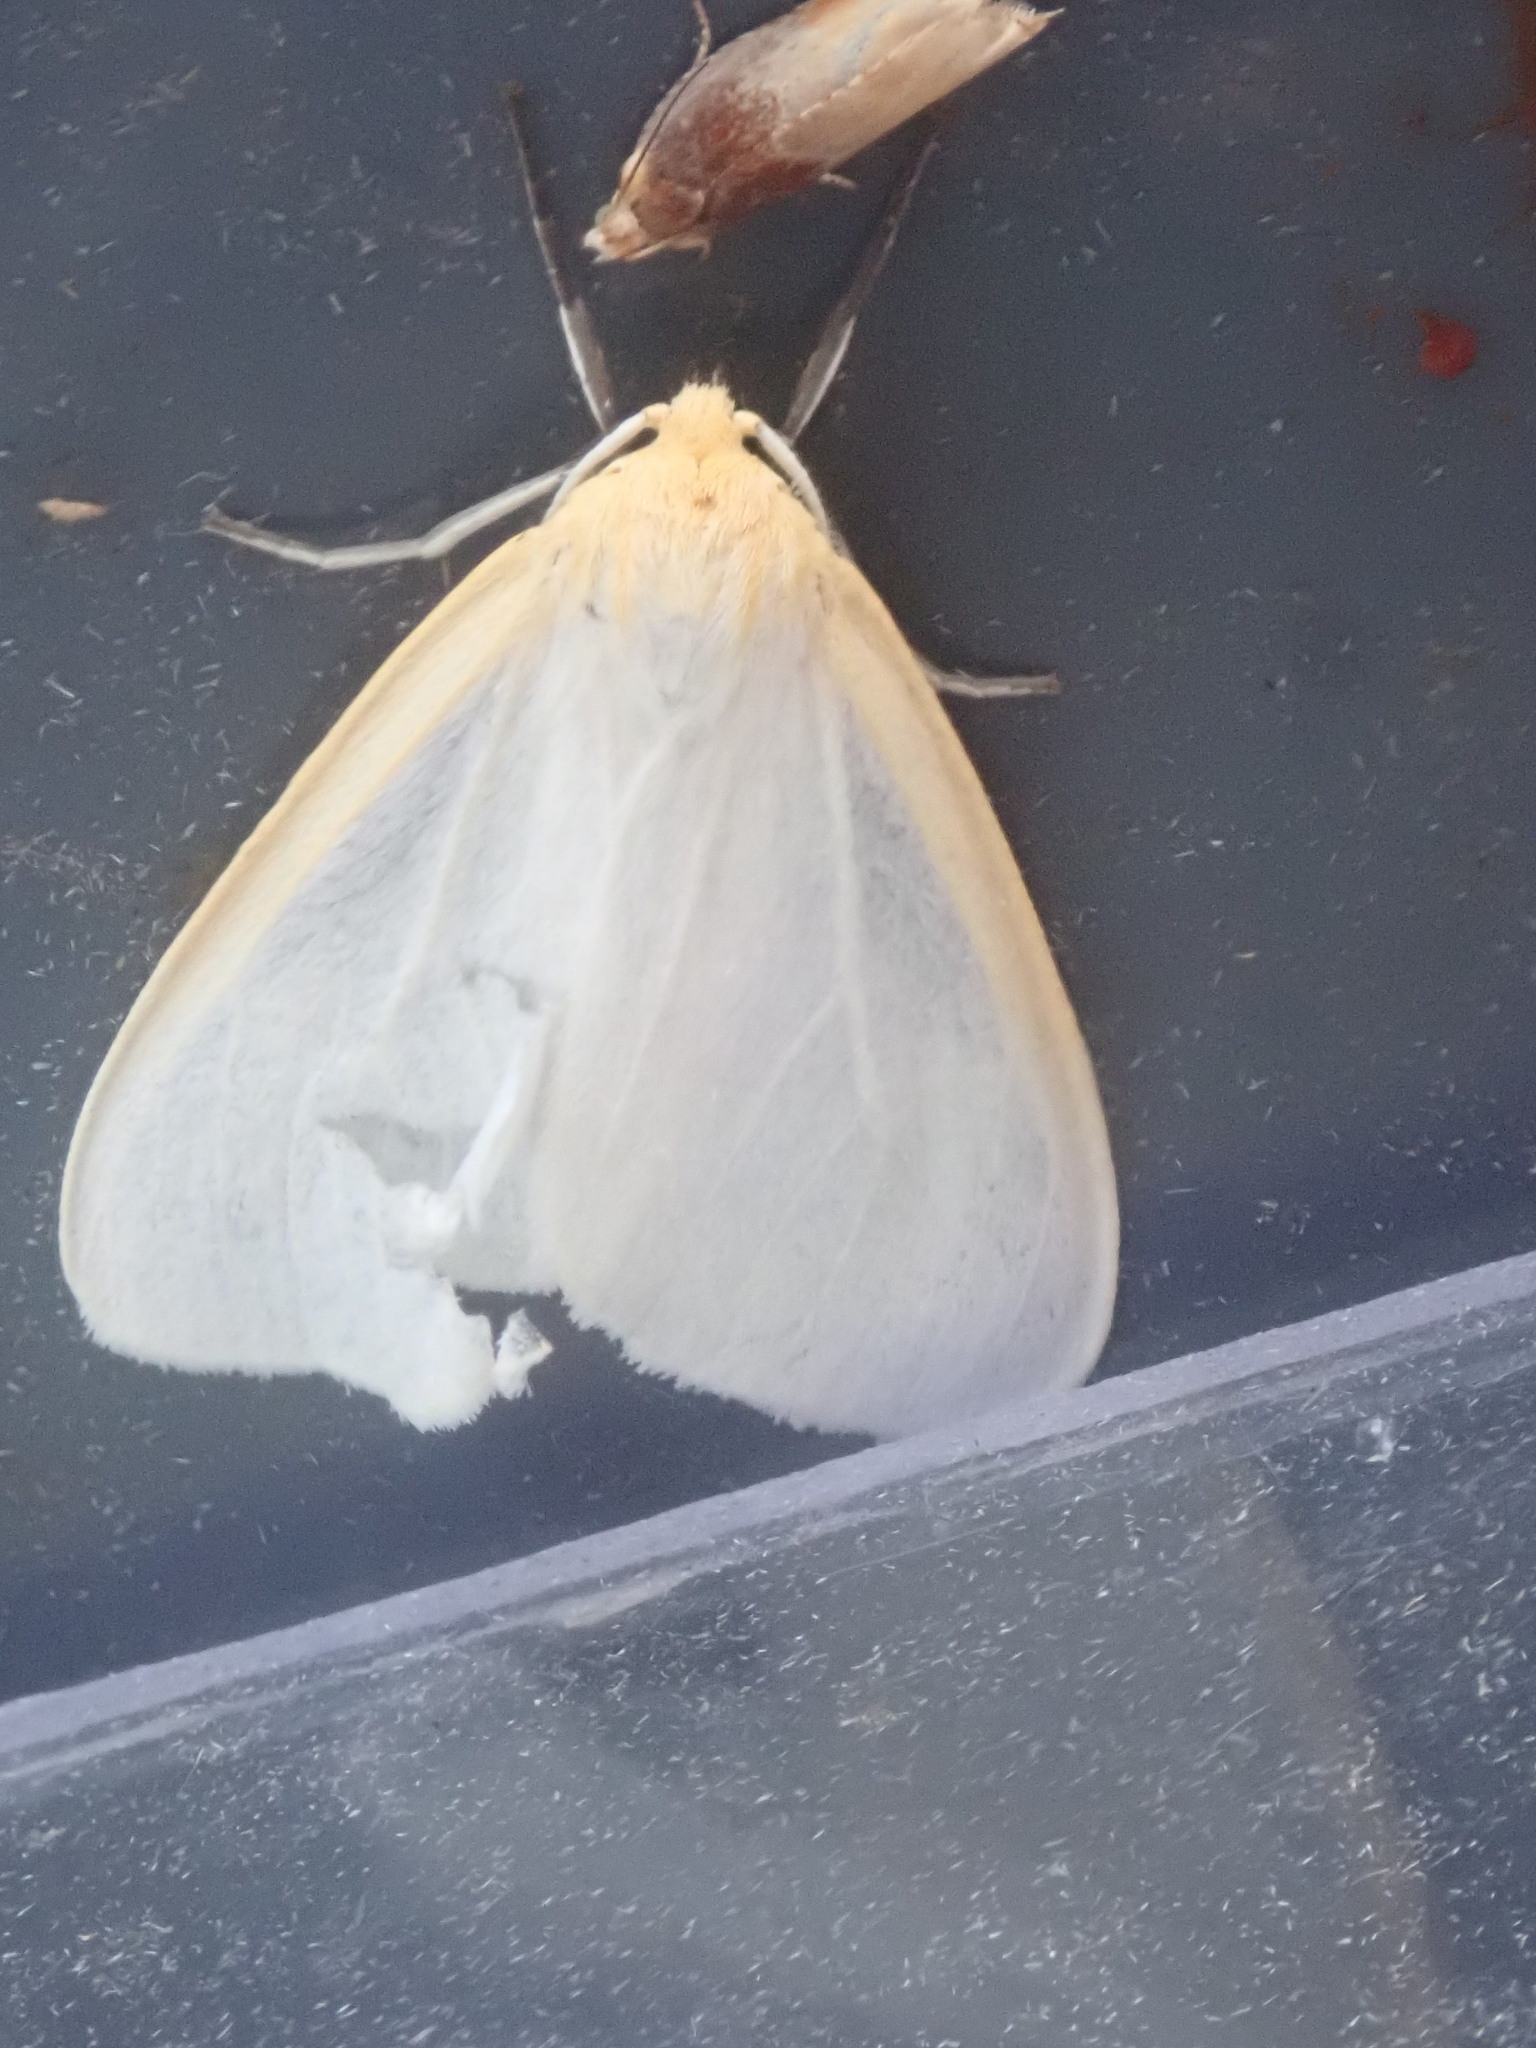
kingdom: Animalia
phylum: Arthropoda
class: Insecta
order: Lepidoptera
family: Erebidae
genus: Cycnia
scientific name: Cycnia tenera
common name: Delicate cycnia moth
